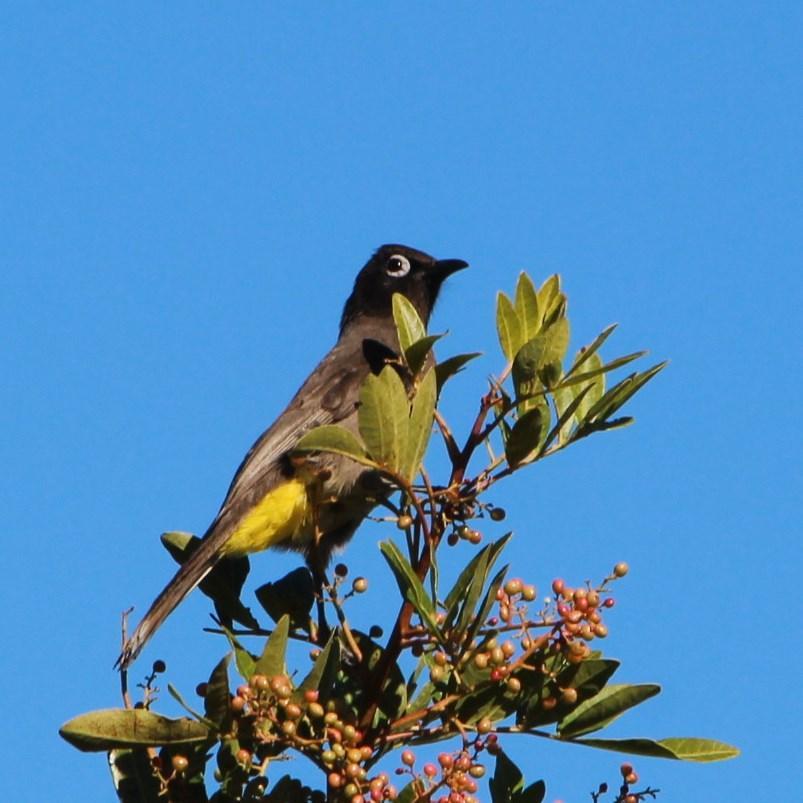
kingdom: Animalia
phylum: Chordata
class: Aves
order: Passeriformes
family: Pycnonotidae
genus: Pycnonotus
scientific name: Pycnonotus capensis
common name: Cape bulbul
